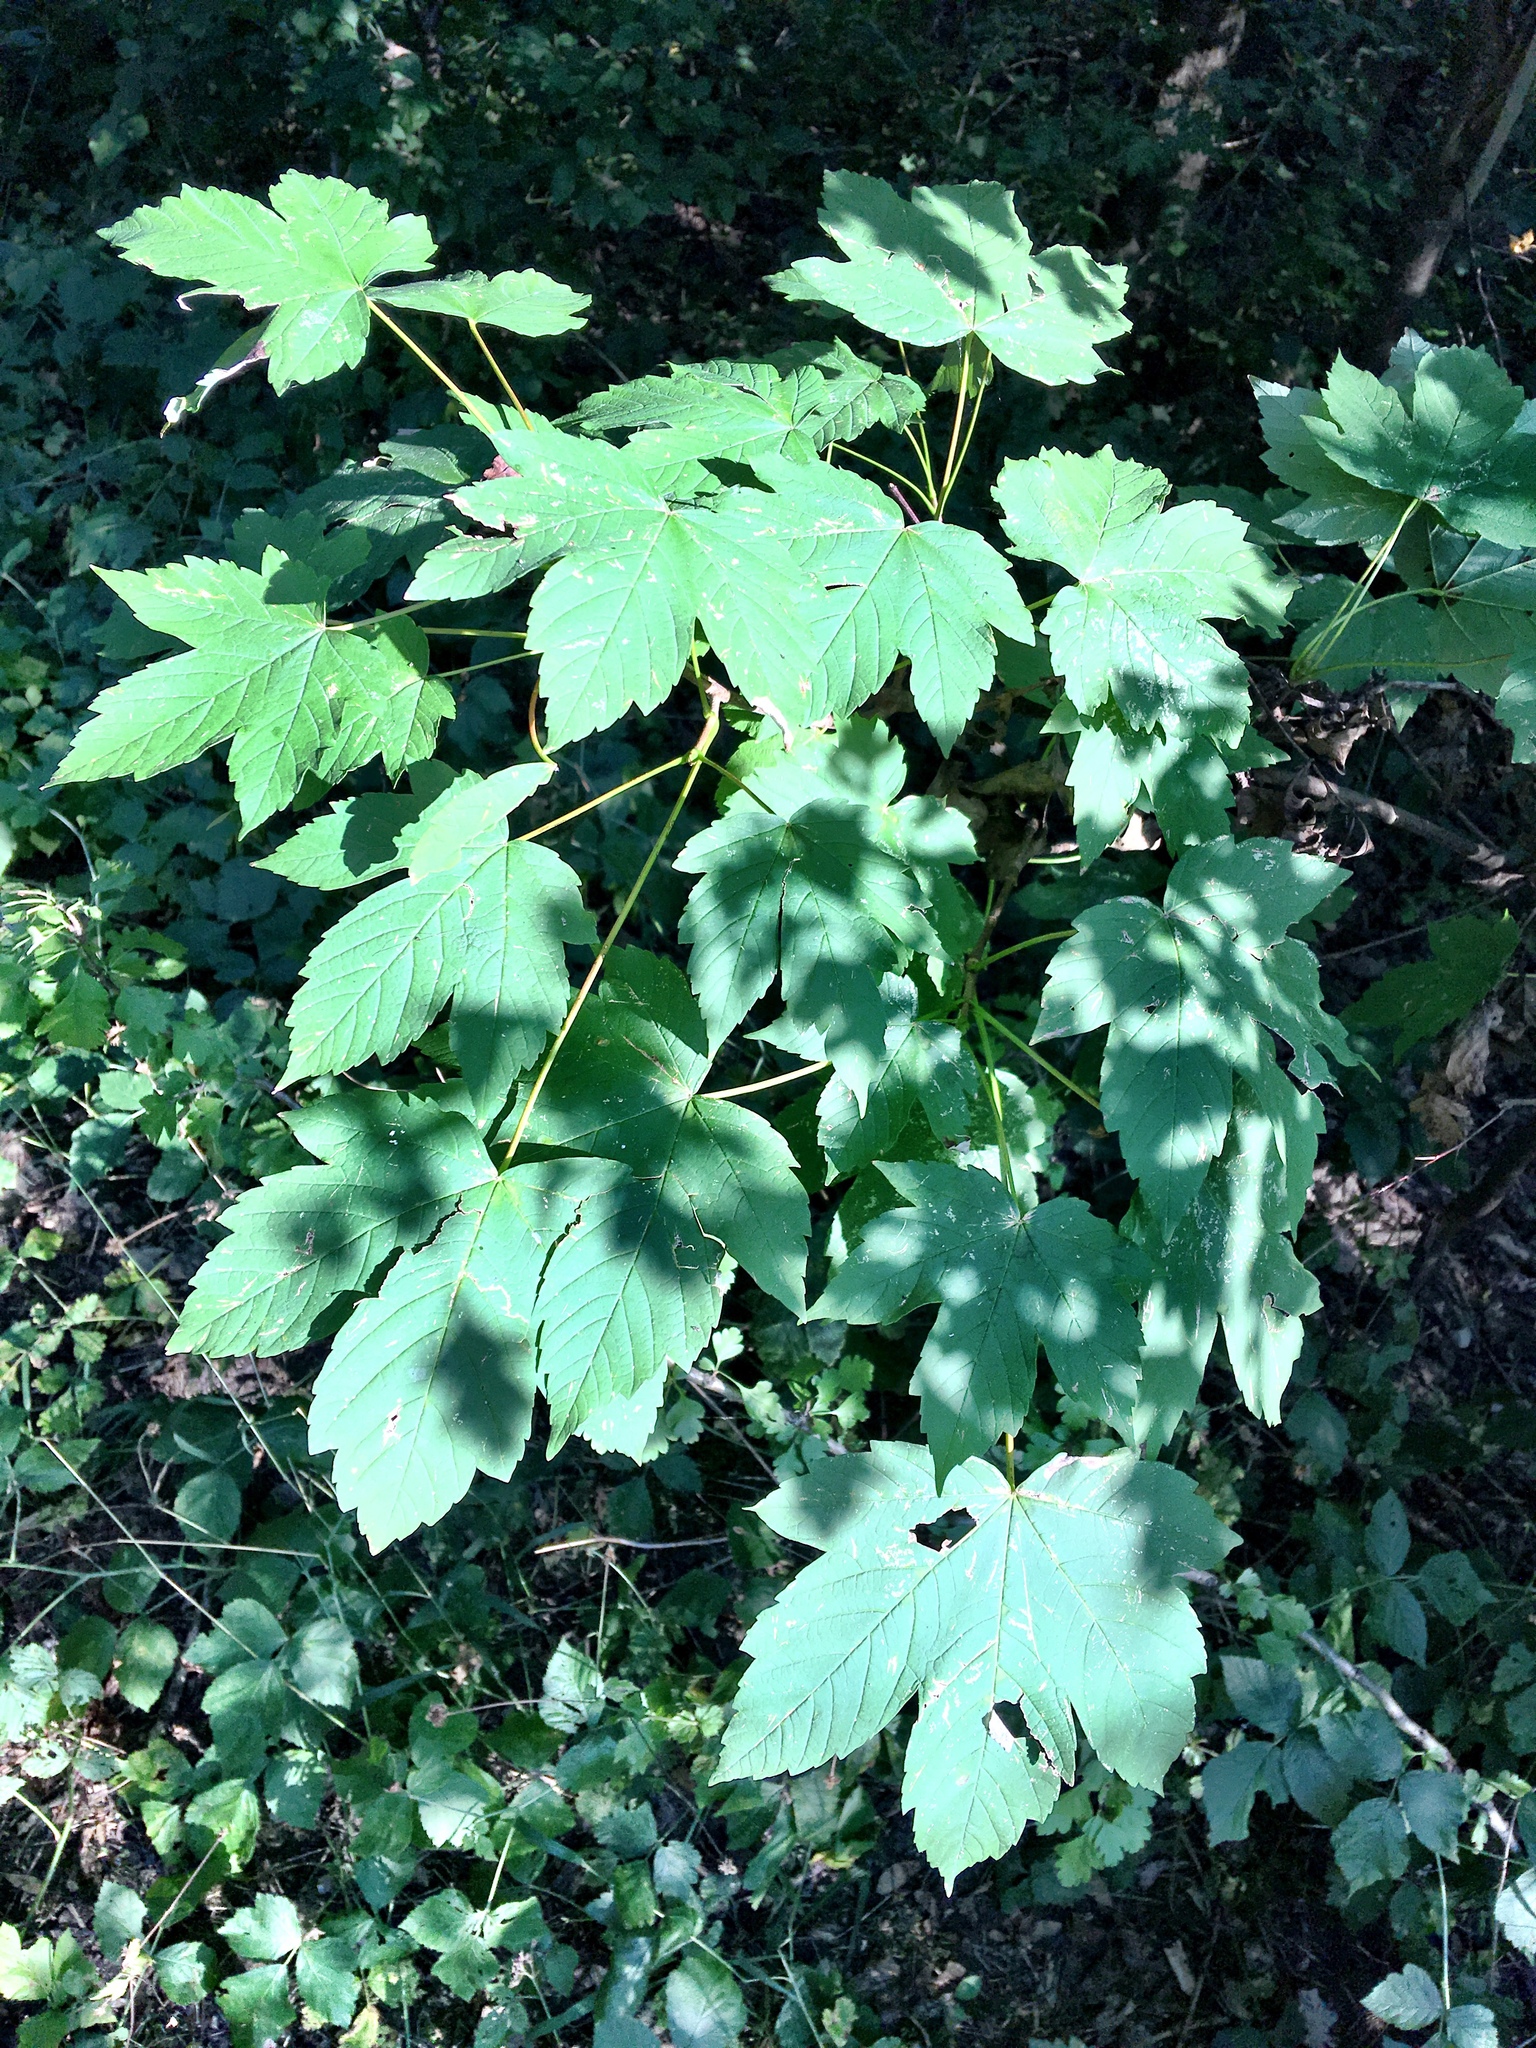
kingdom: Plantae
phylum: Tracheophyta
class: Magnoliopsida
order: Sapindales
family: Sapindaceae
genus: Acer
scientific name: Acer pseudoplatanus
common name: Sycamore
